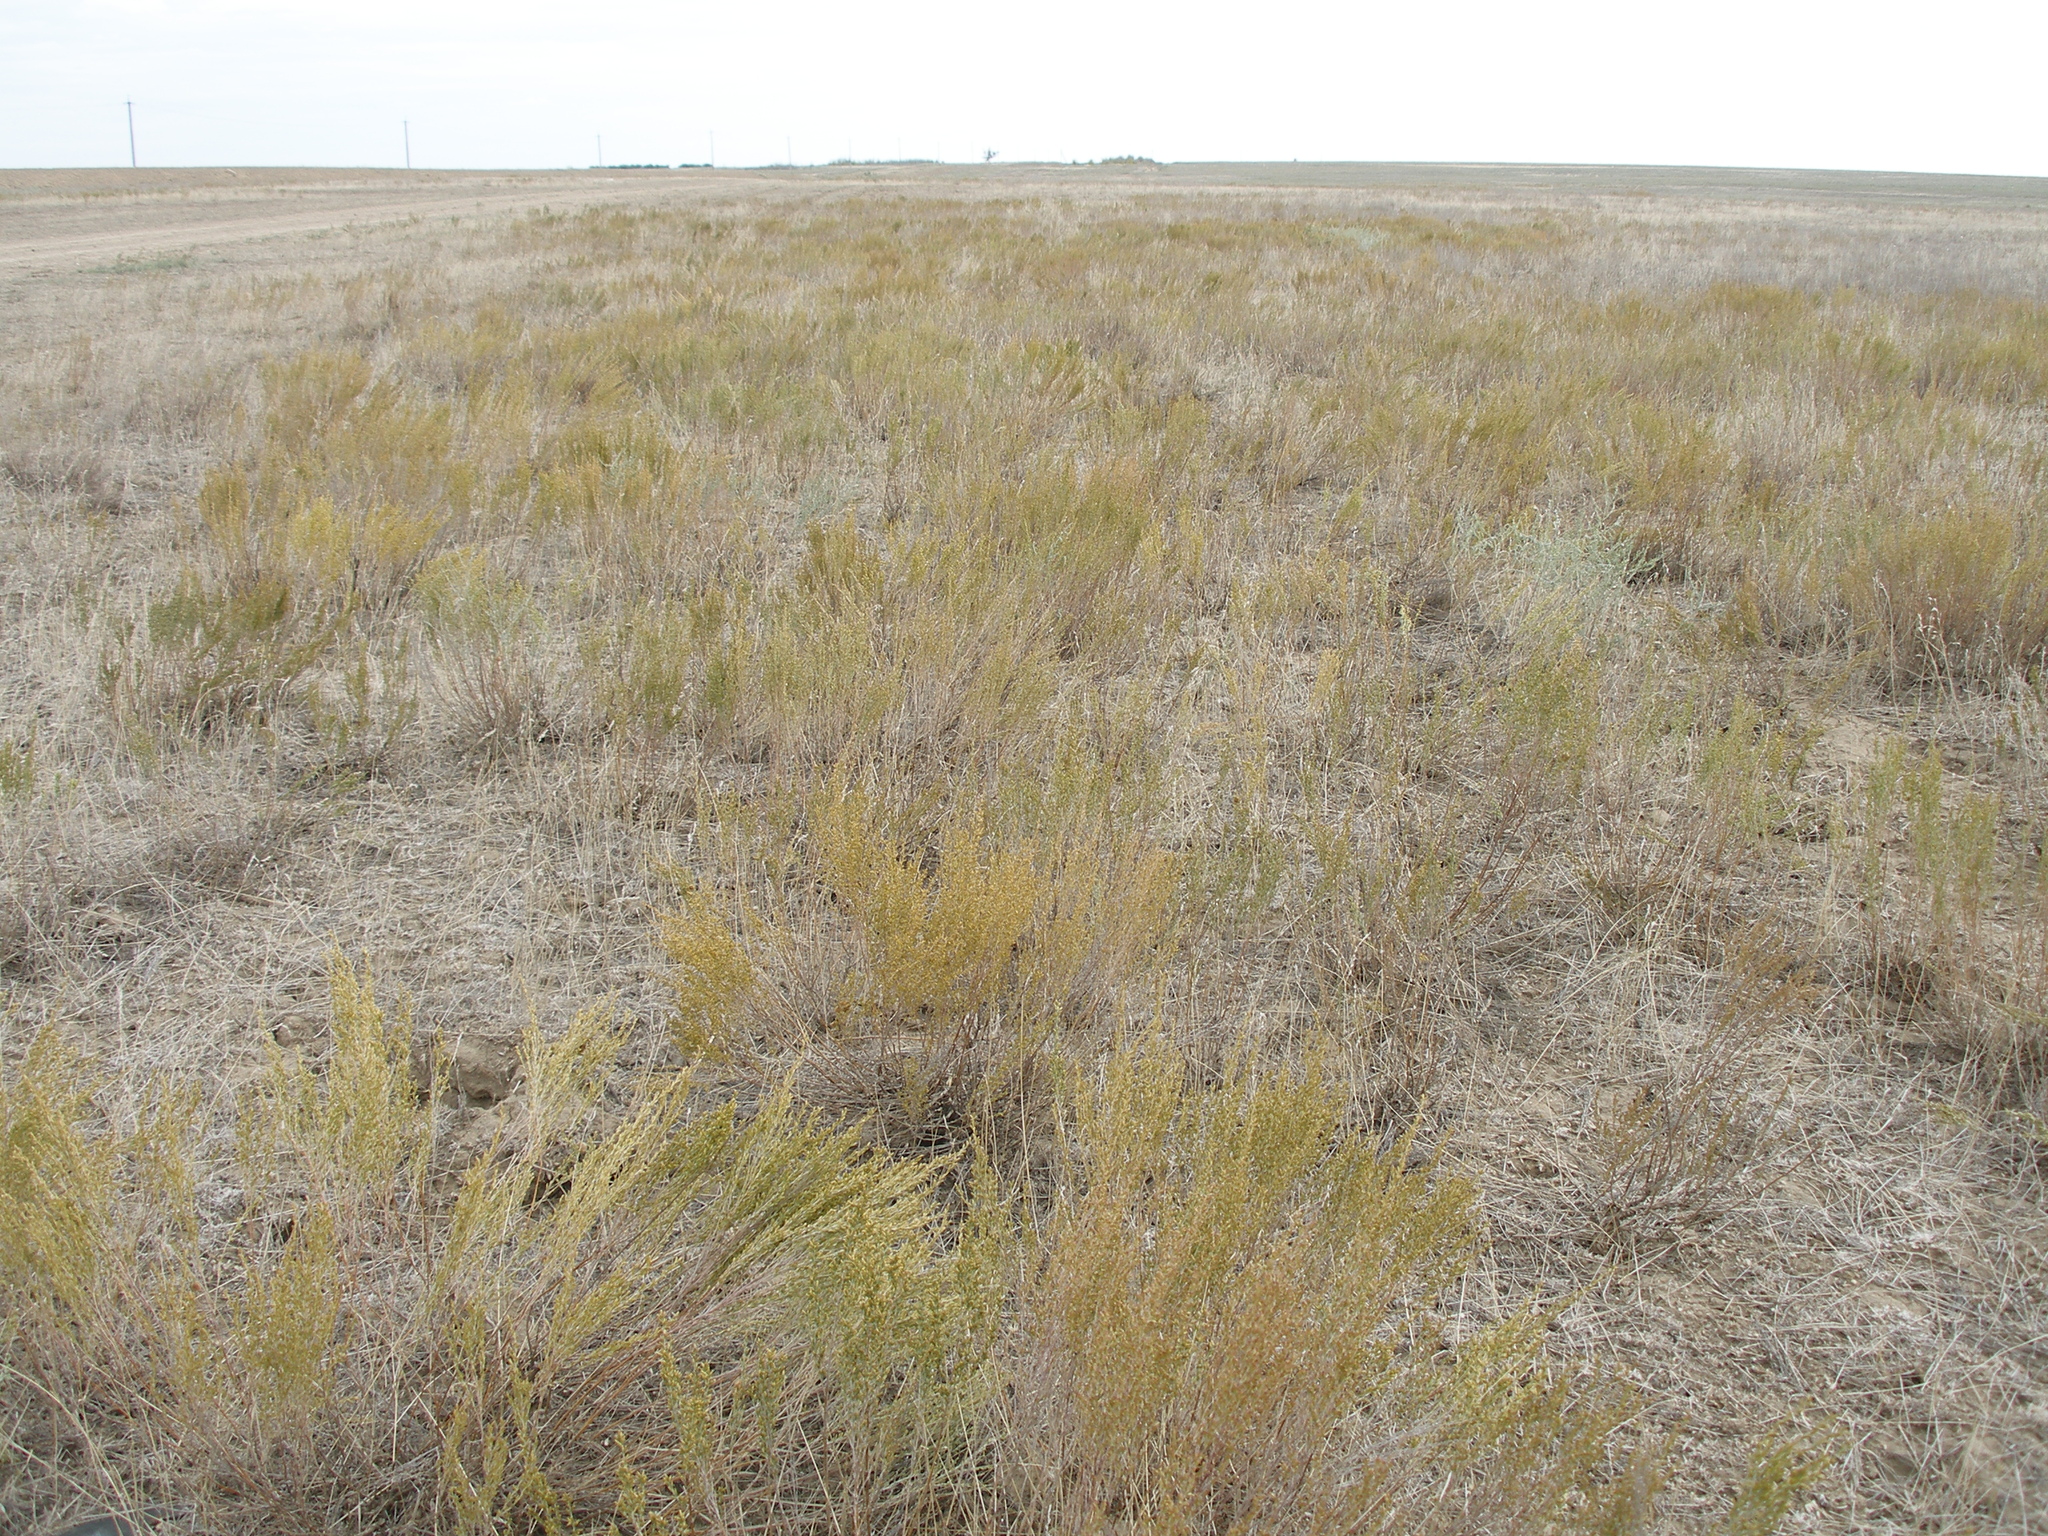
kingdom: Plantae
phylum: Tracheophyta
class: Magnoliopsida
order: Asterales
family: Asteraceae
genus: Artemisia
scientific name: Artemisia pauciflora
